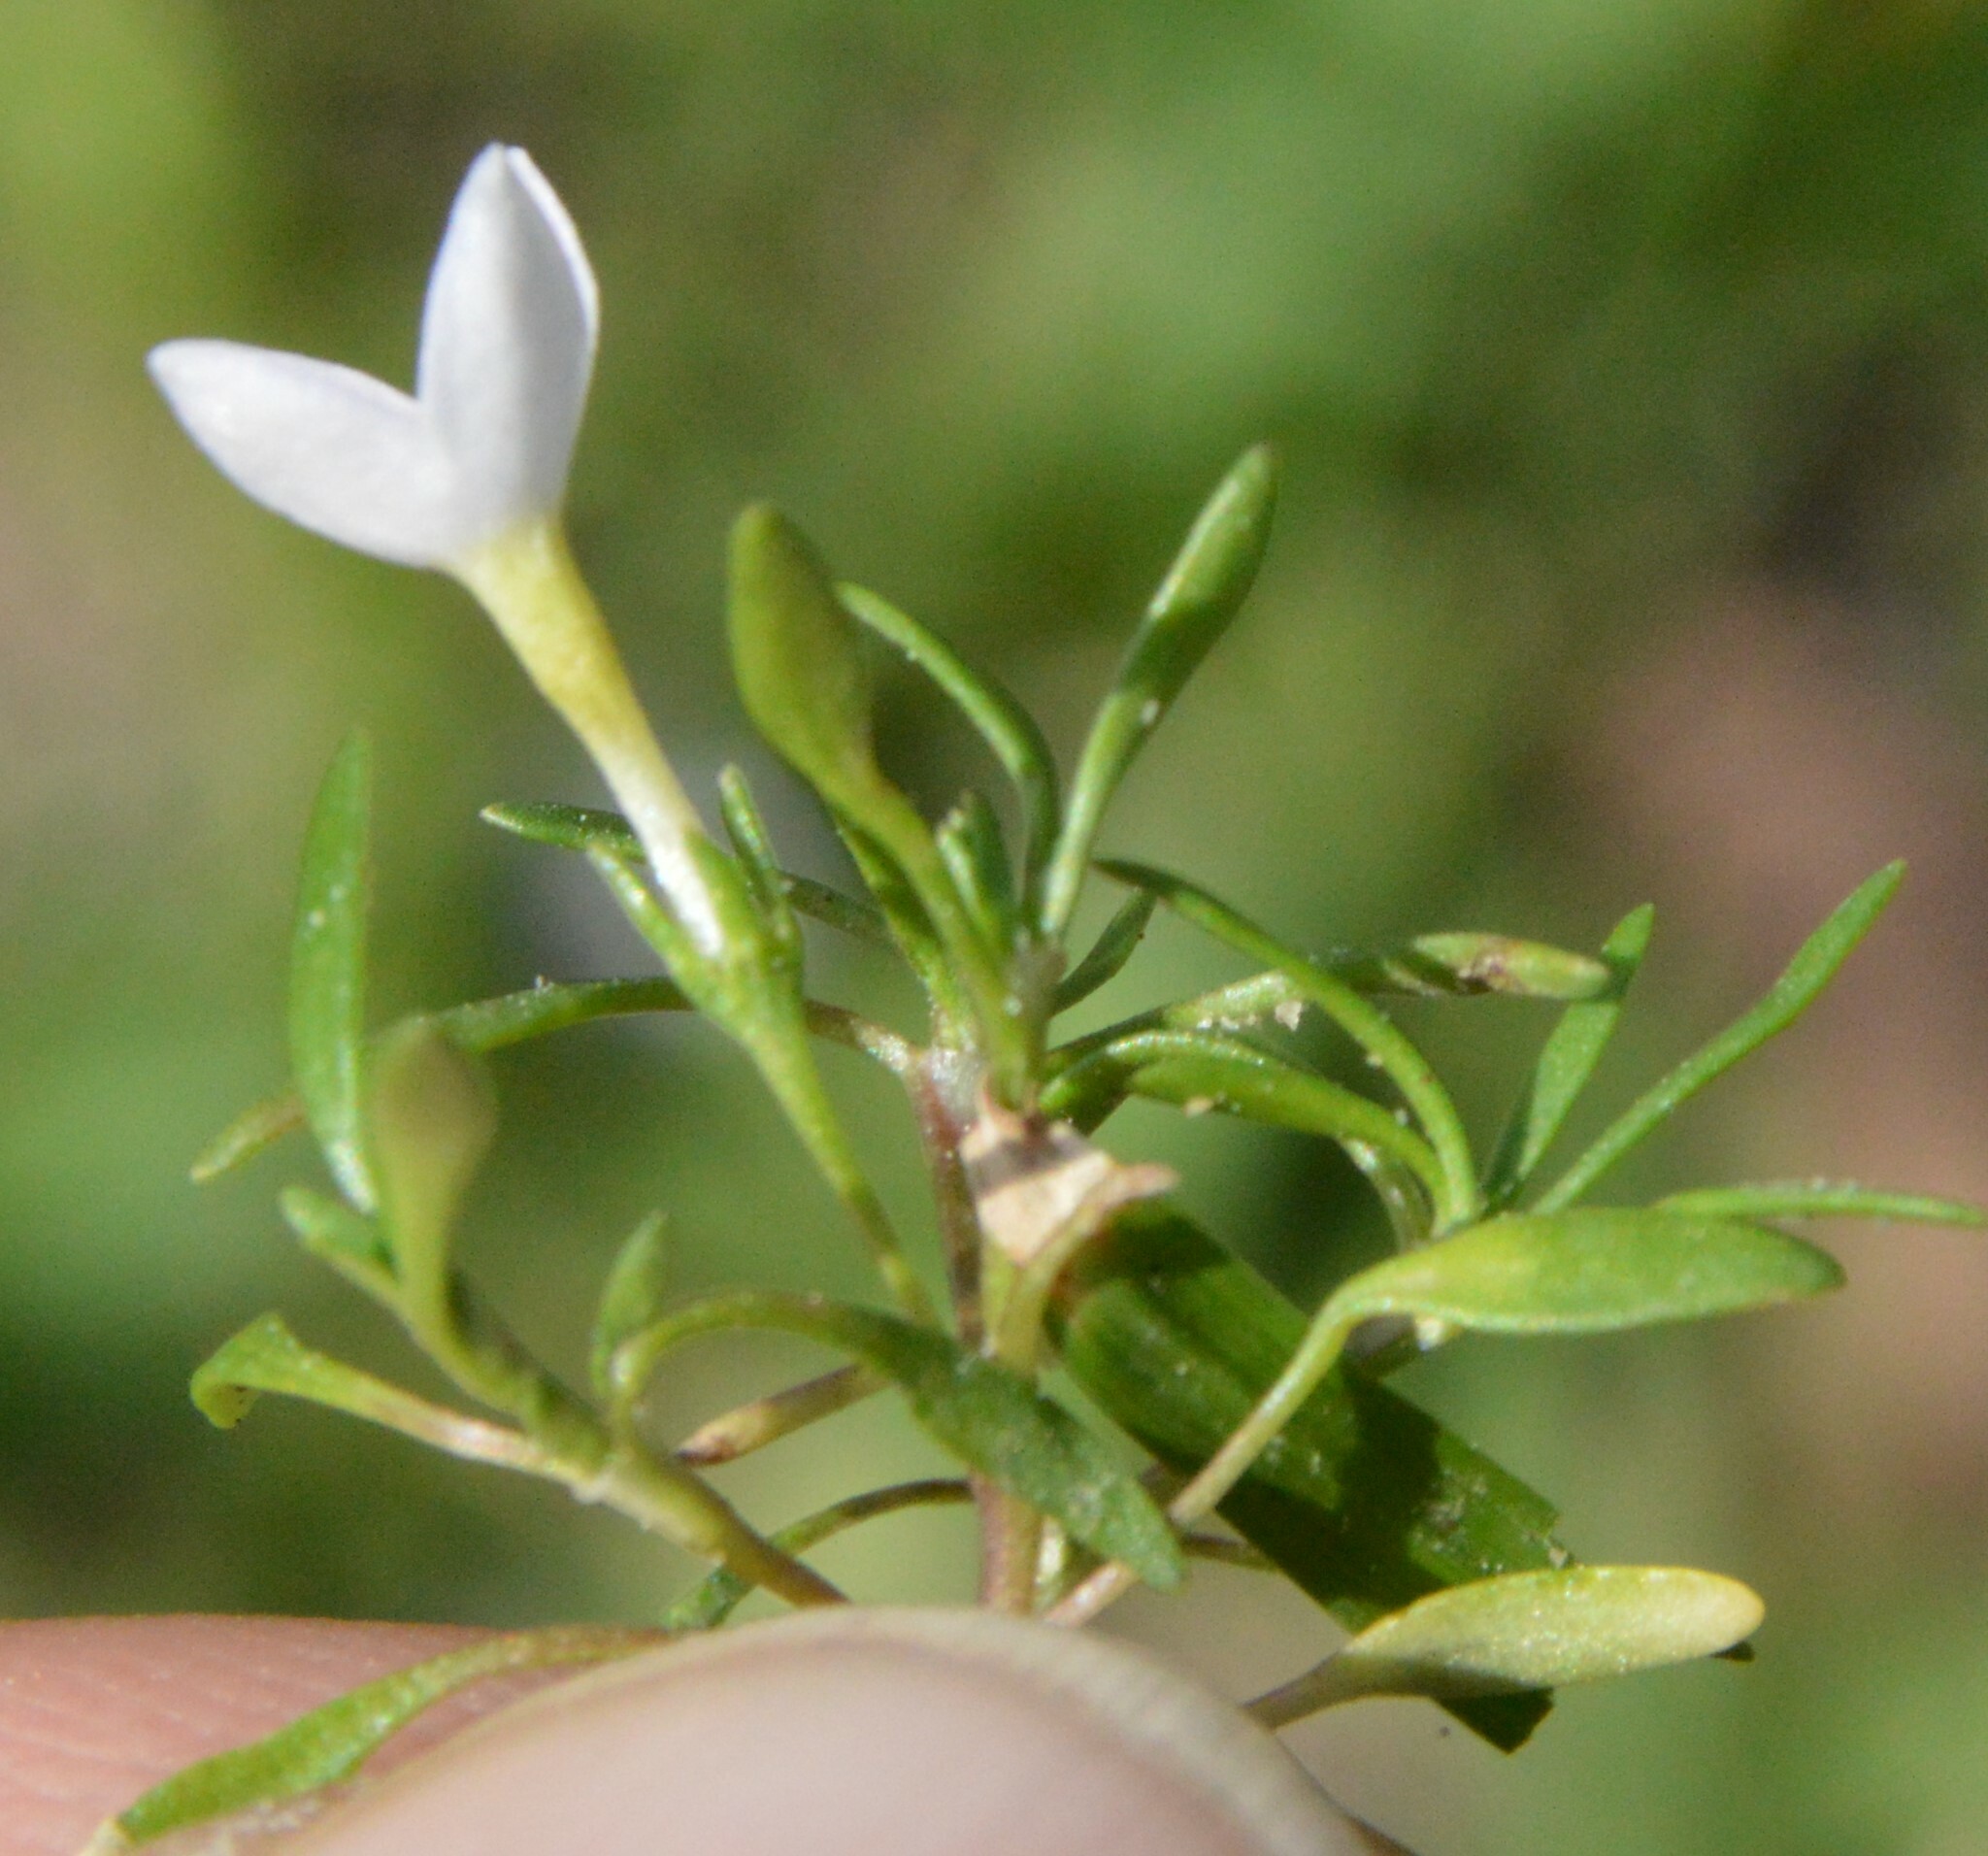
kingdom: Plantae
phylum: Tracheophyta
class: Magnoliopsida
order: Gentianales
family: Rubiaceae
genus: Houstonia
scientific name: Houstonia rosea
